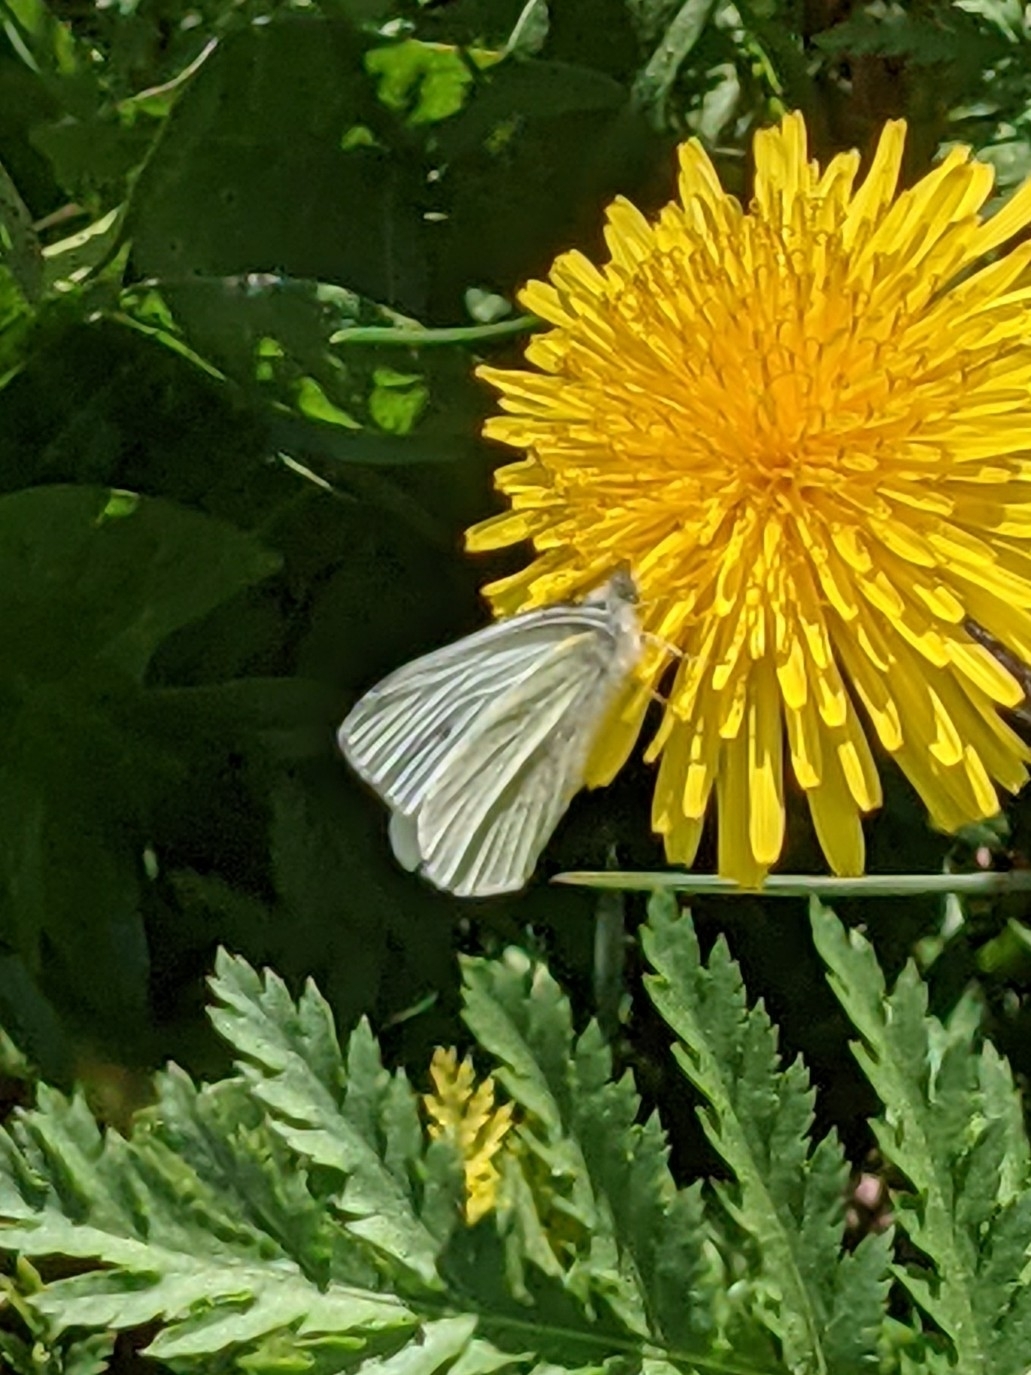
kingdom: Animalia
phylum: Arthropoda
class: Insecta
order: Lepidoptera
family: Pieridae
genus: Pieris
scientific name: Pieris rapae
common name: Small white
